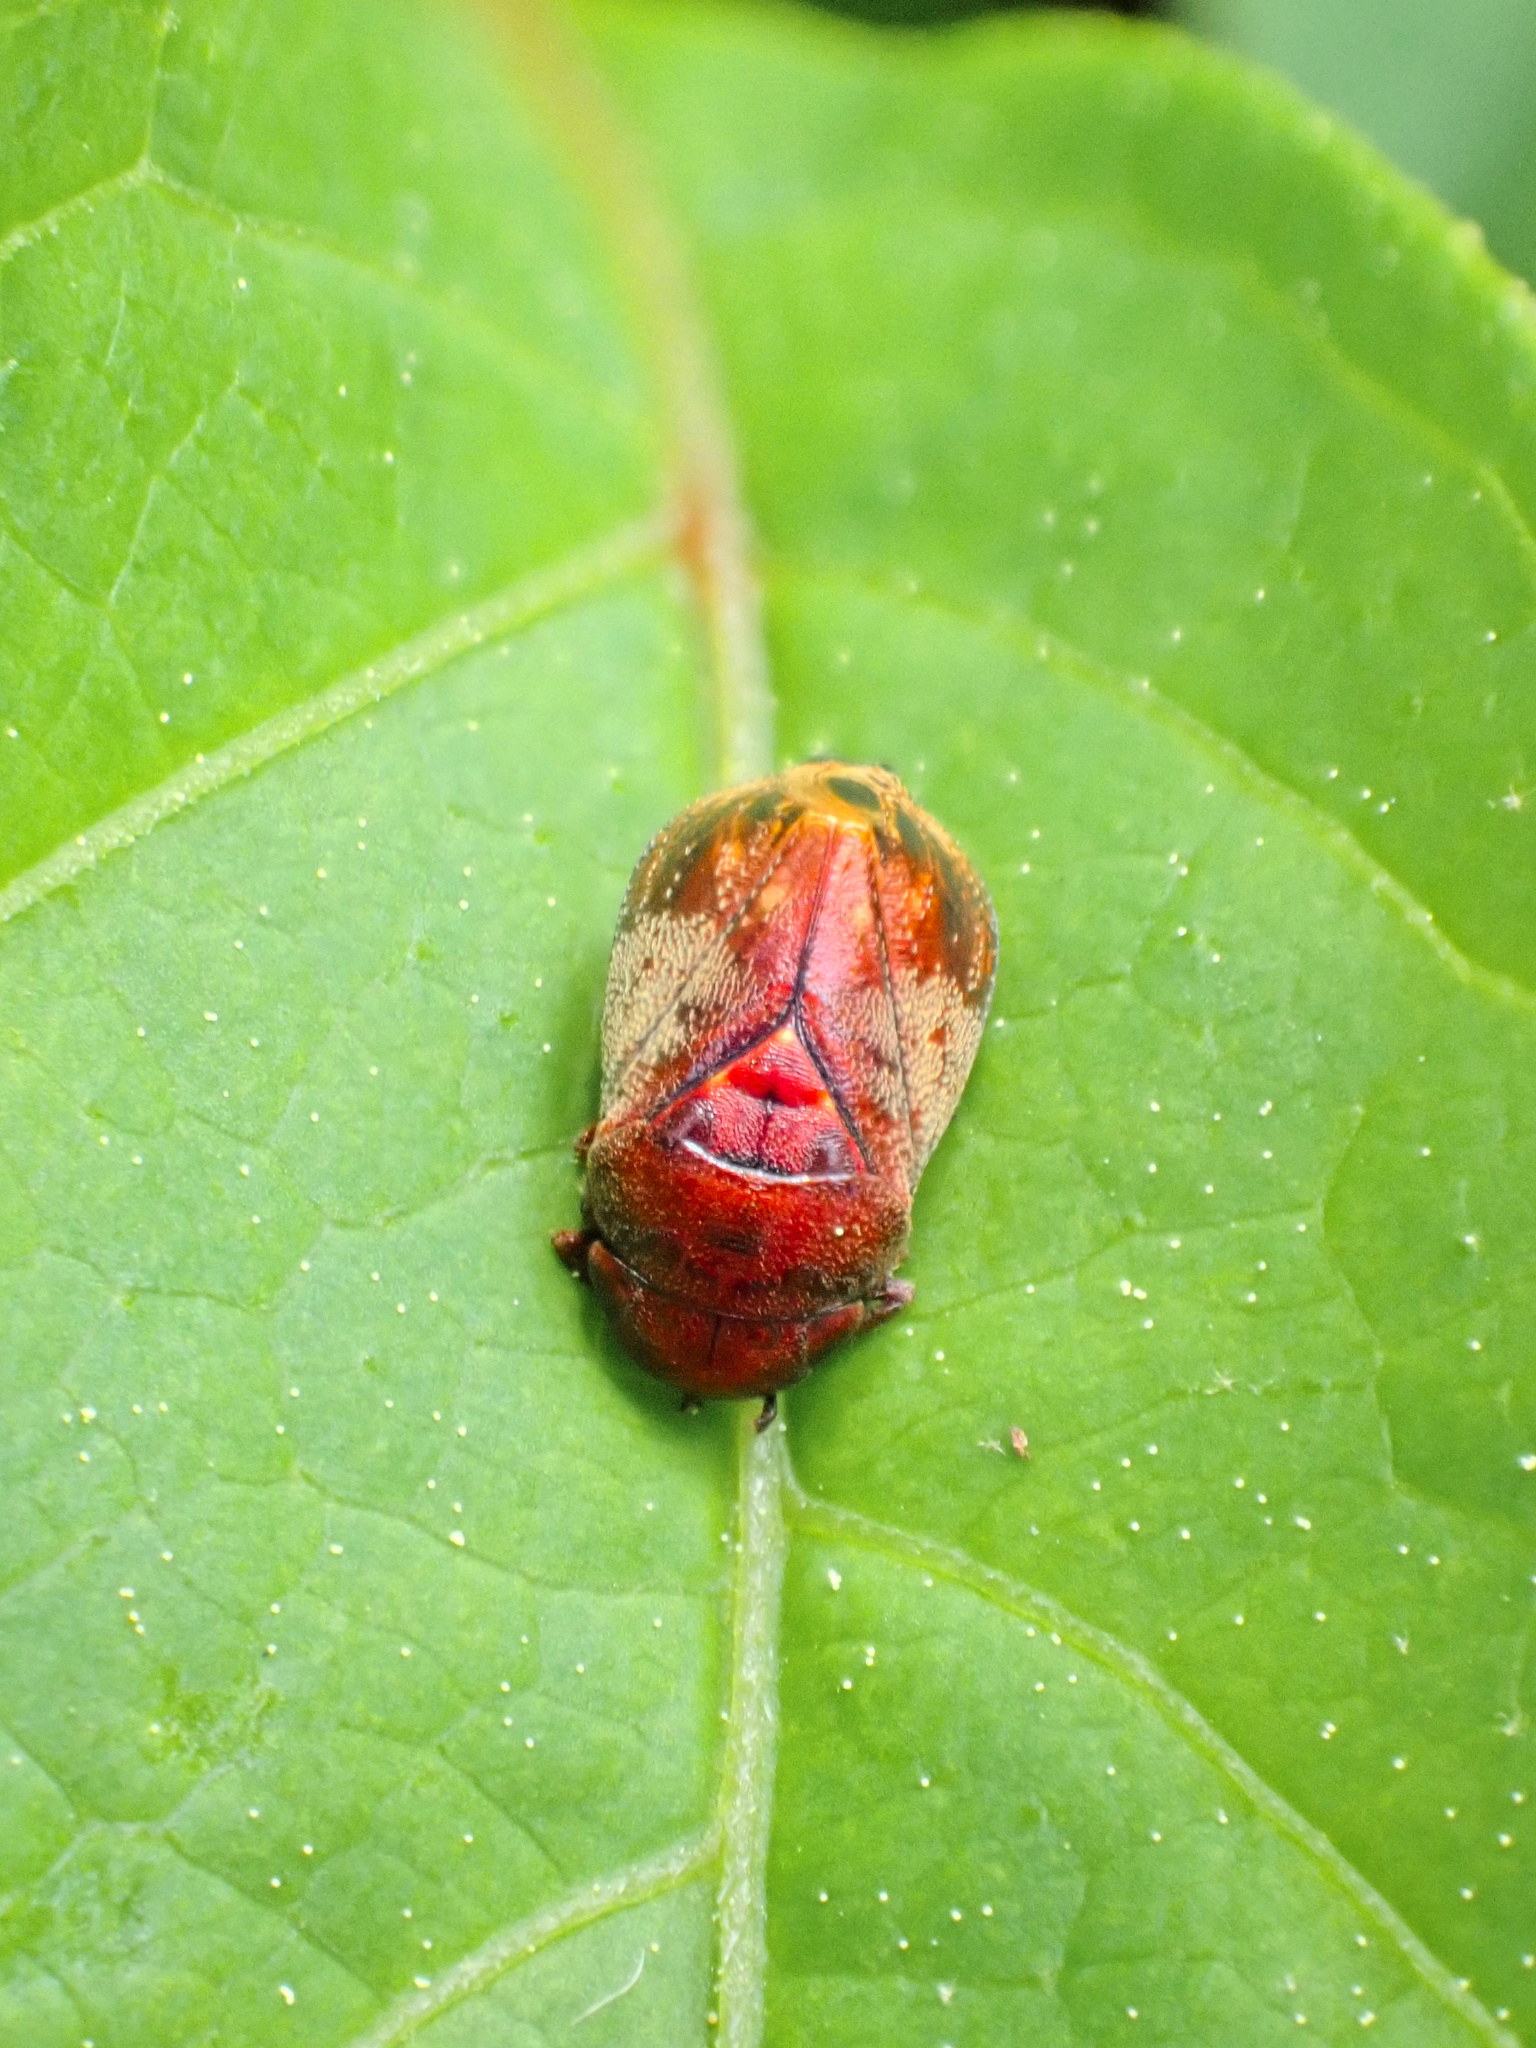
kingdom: Animalia
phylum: Arthropoda
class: Insecta
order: Hemiptera
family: Cicadellidae
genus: Penthimia
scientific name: Penthimia americana
